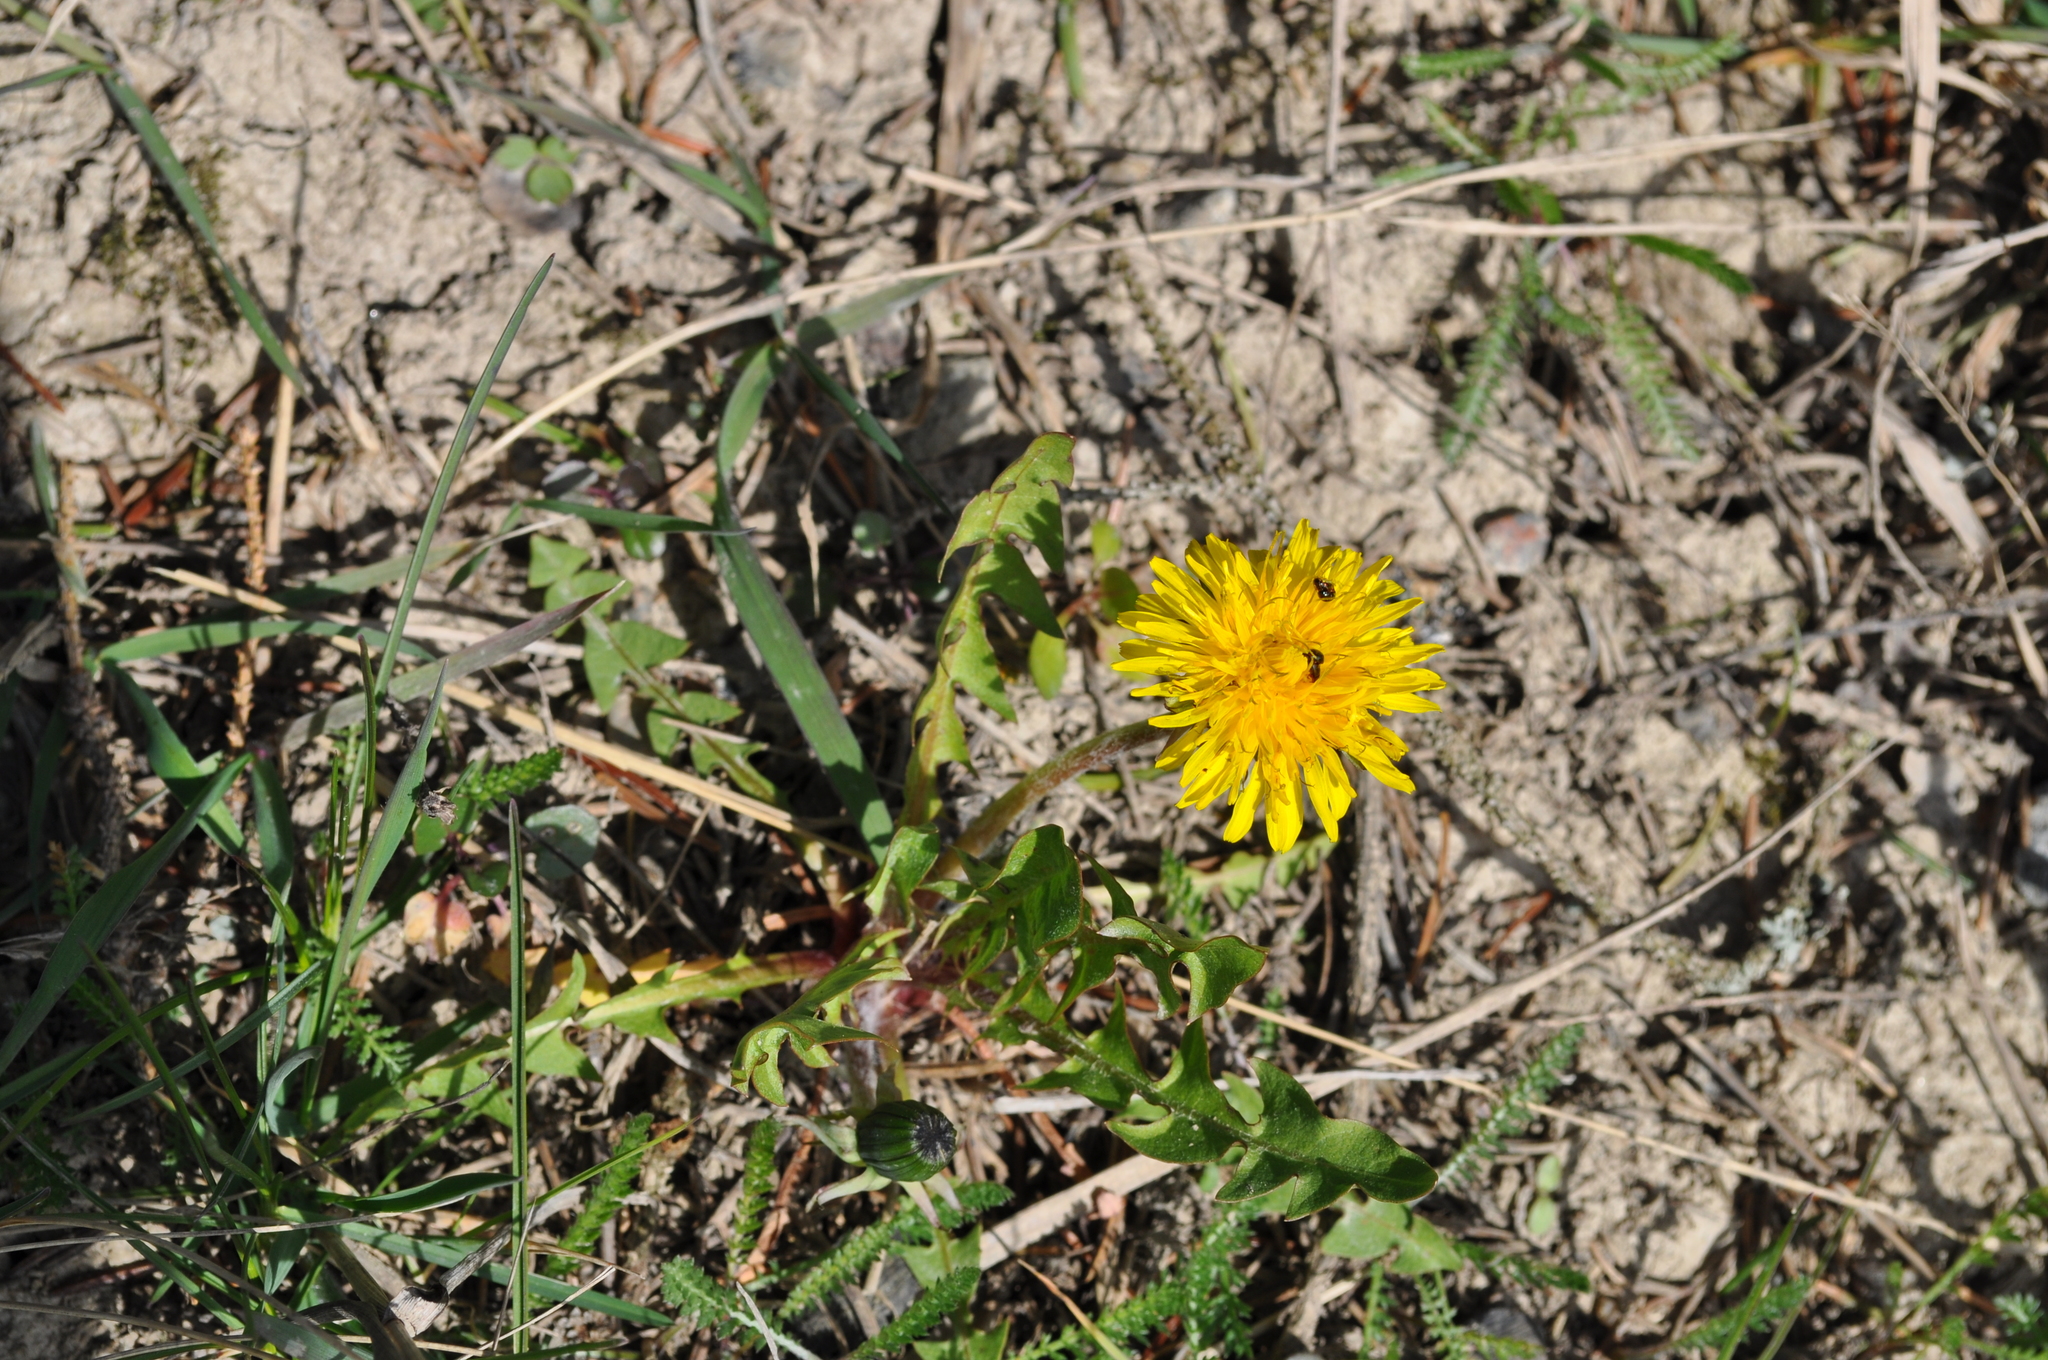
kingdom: Plantae
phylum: Tracheophyta
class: Magnoliopsida
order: Asterales
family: Asteraceae
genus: Taraxacum
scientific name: Taraxacum officinale
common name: Common dandelion
